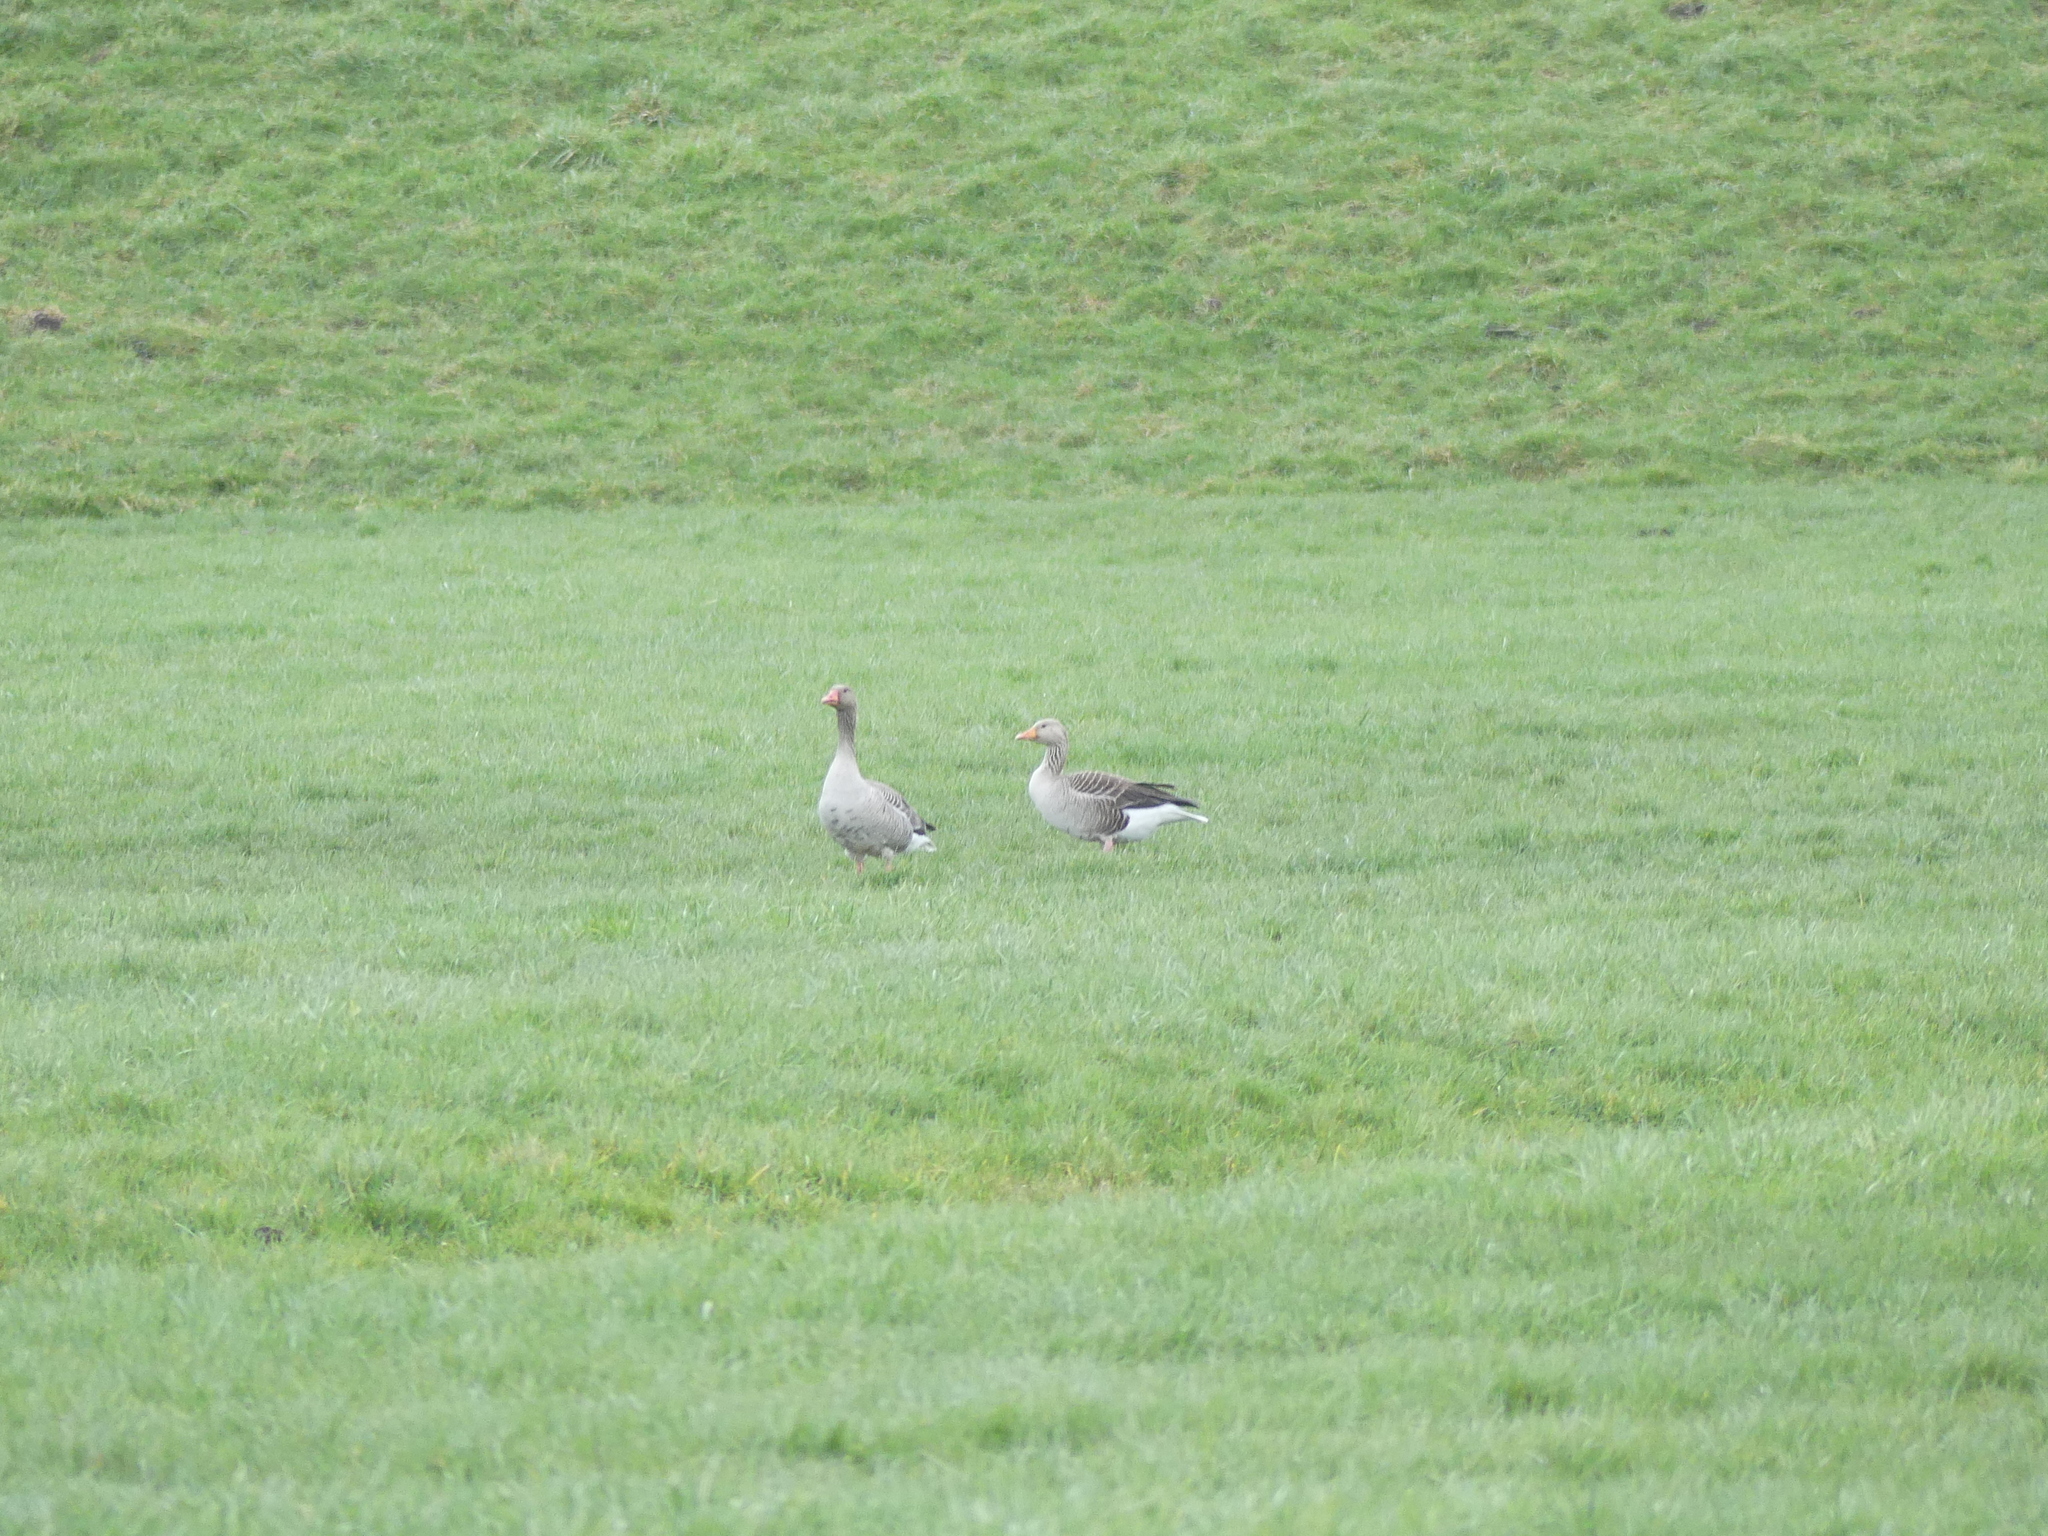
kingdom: Animalia
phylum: Chordata
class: Aves
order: Anseriformes
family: Anatidae
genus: Anser
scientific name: Anser anser
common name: Greylag goose
